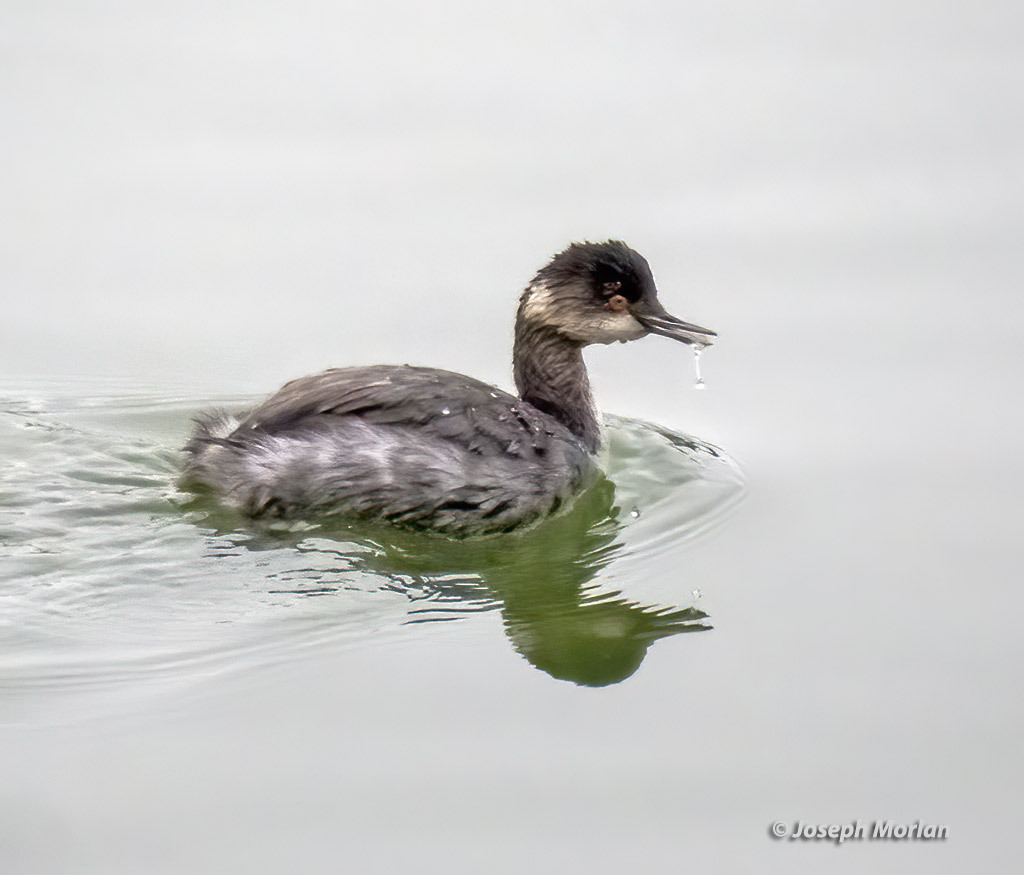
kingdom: Animalia
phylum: Chordata
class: Aves
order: Podicipediformes
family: Podicipedidae
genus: Podiceps
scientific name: Podiceps nigricollis
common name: Black-necked grebe
